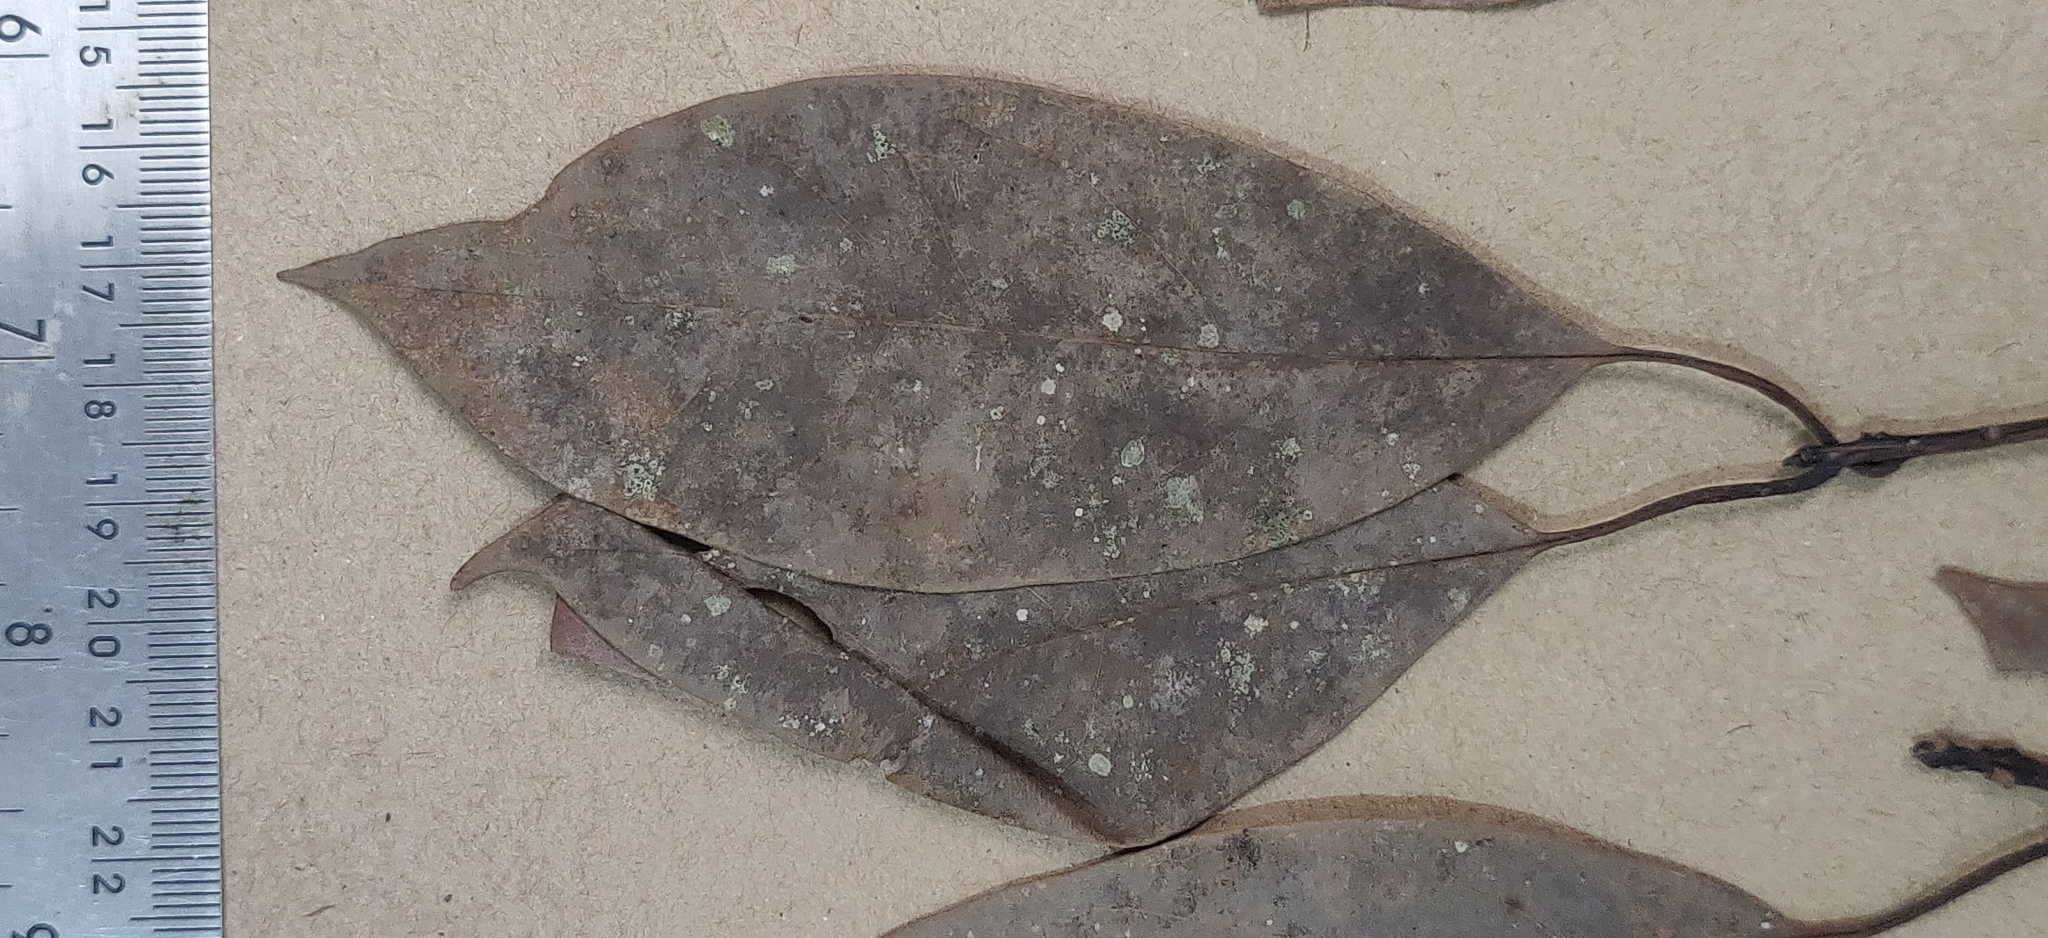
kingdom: Plantae
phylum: Tracheophyta
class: Magnoliopsida
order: Laurales
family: Lauraceae
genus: Machilus
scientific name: Machilus glaucescens
